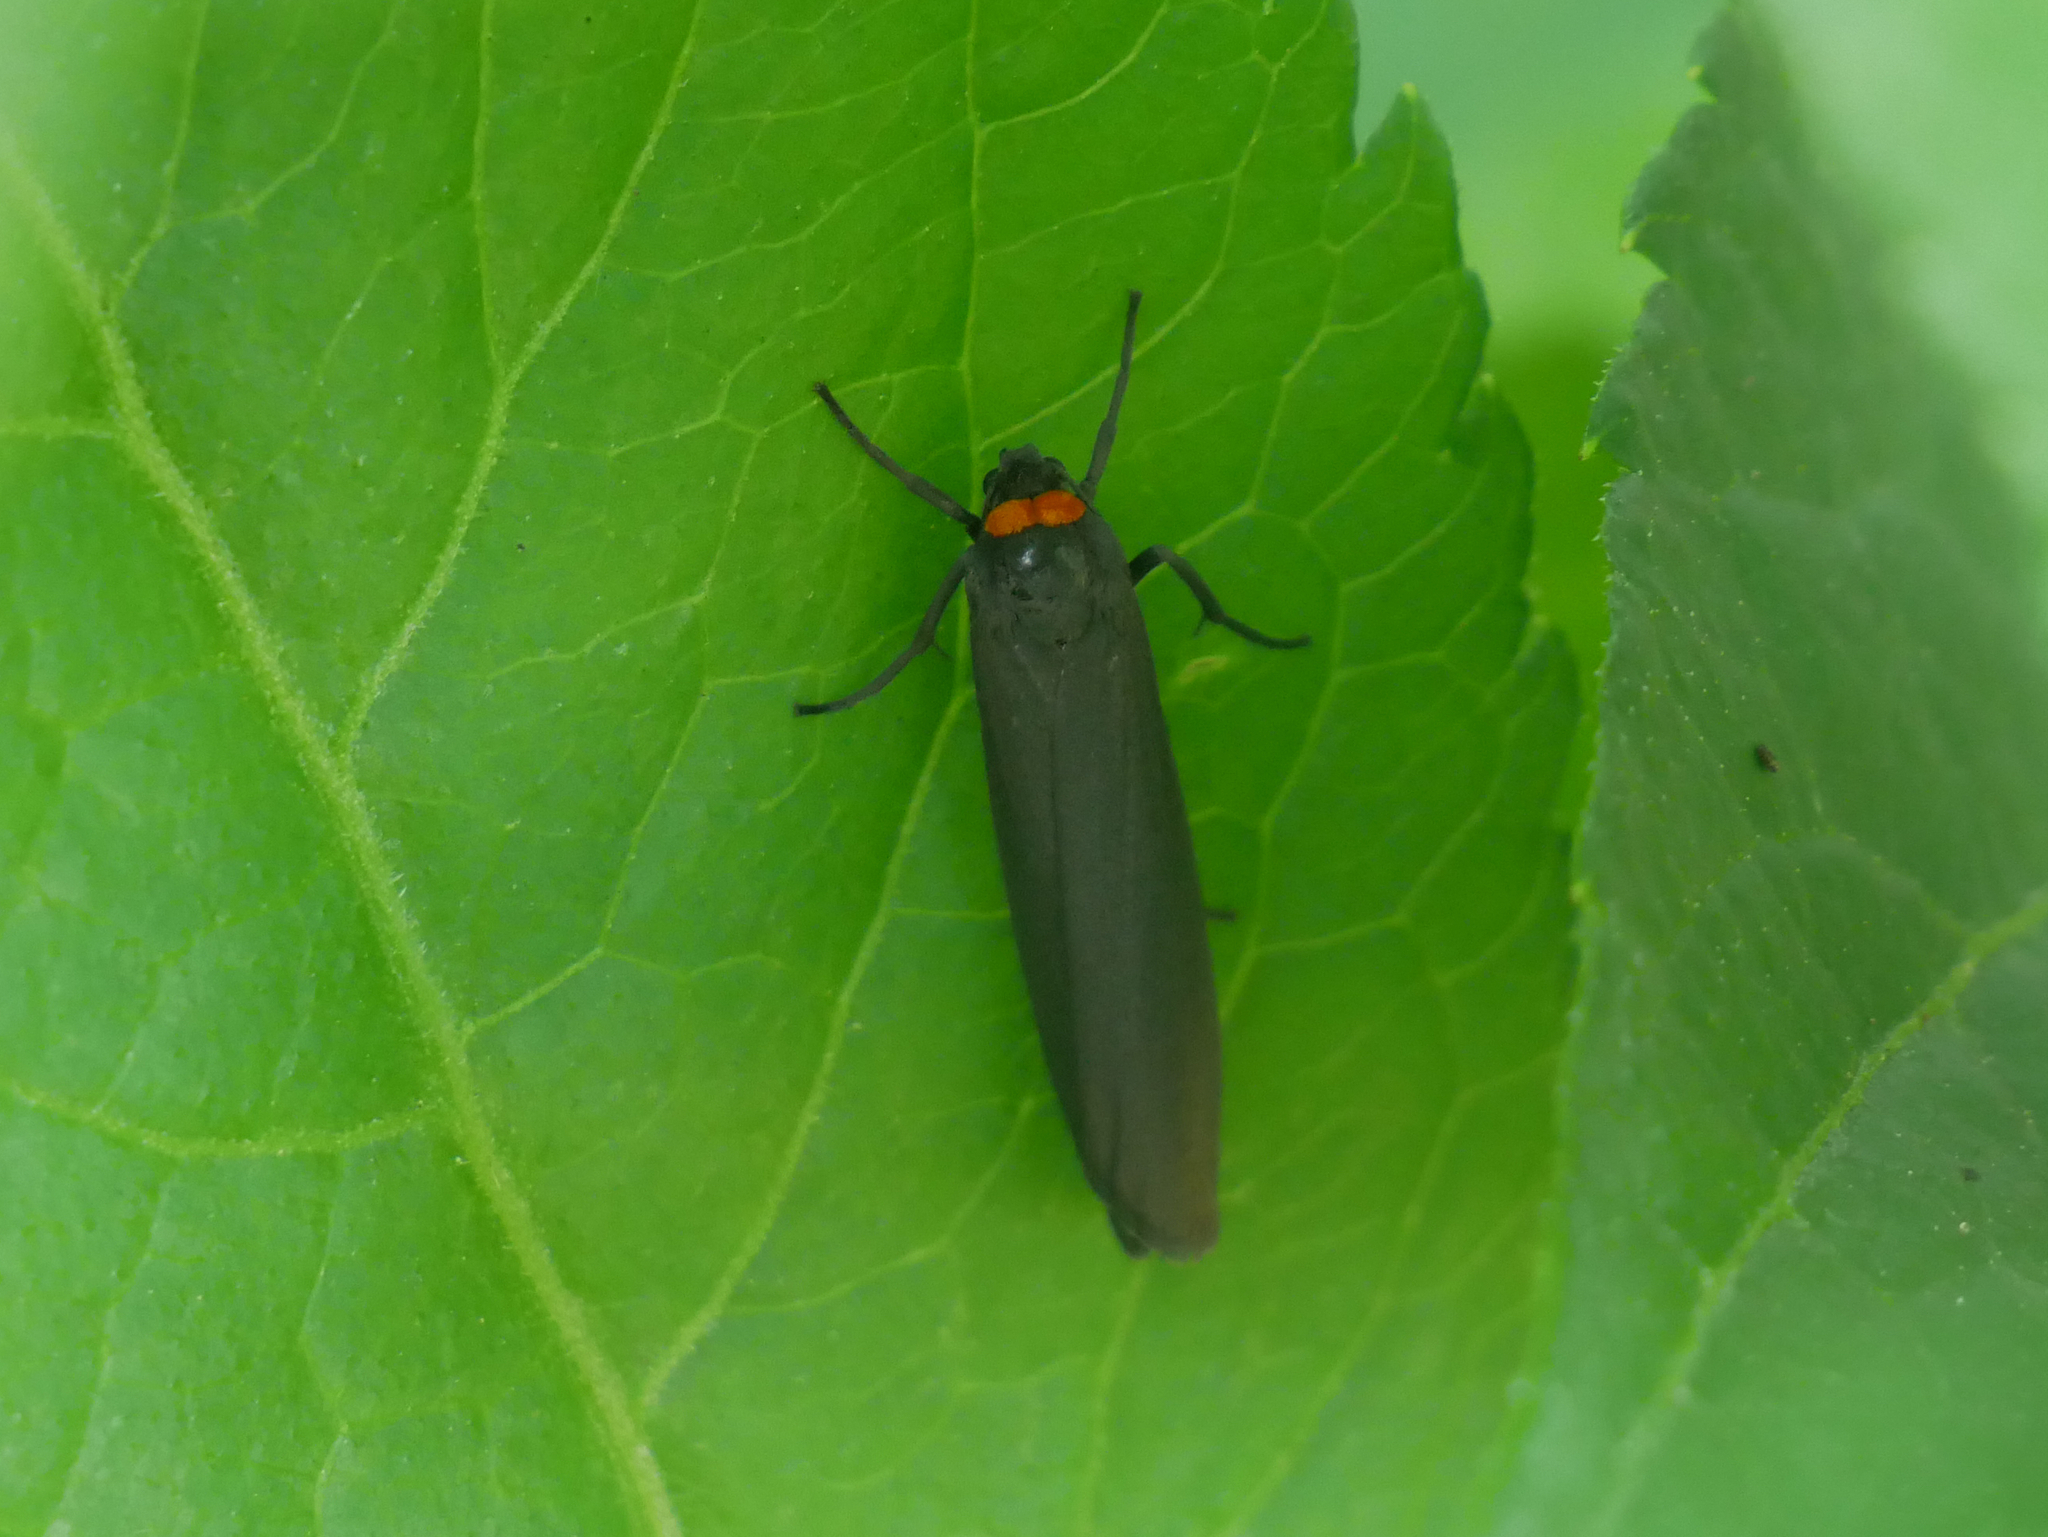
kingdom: Animalia
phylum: Arthropoda
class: Insecta
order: Lepidoptera
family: Erebidae
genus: Atolmis
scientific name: Atolmis rubricollis
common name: Red-necked footman
